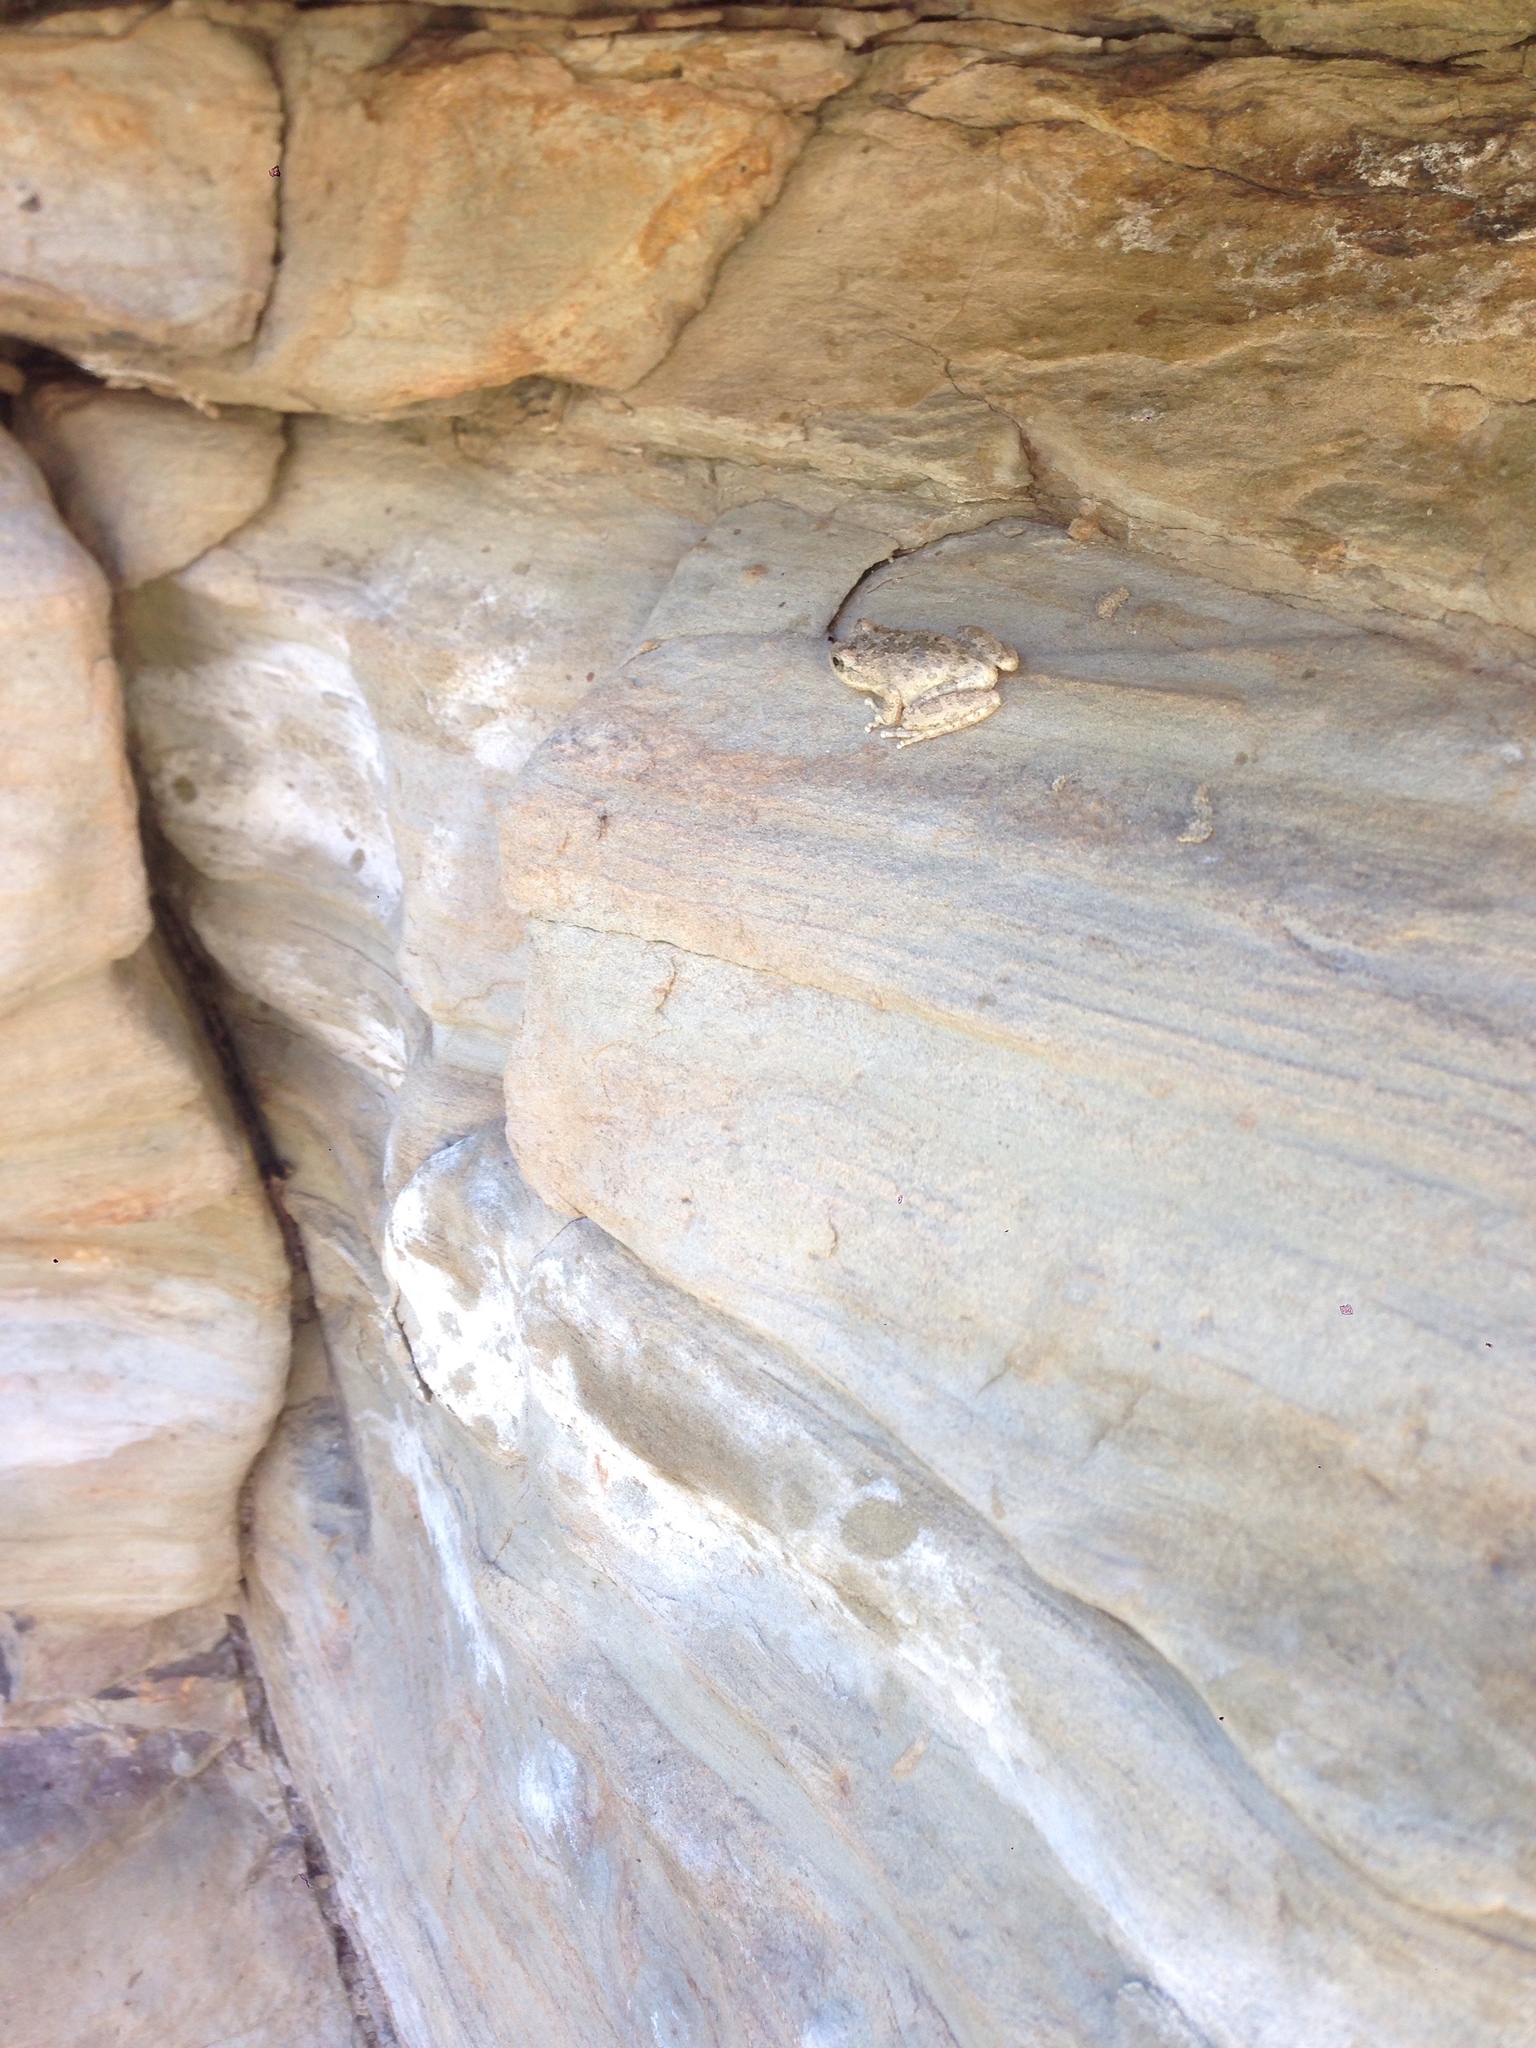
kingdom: Animalia
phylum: Chordata
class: Amphibia
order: Anura
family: Hylidae
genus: Pseudacris
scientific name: Pseudacris cadaverina
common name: California chorus frog
